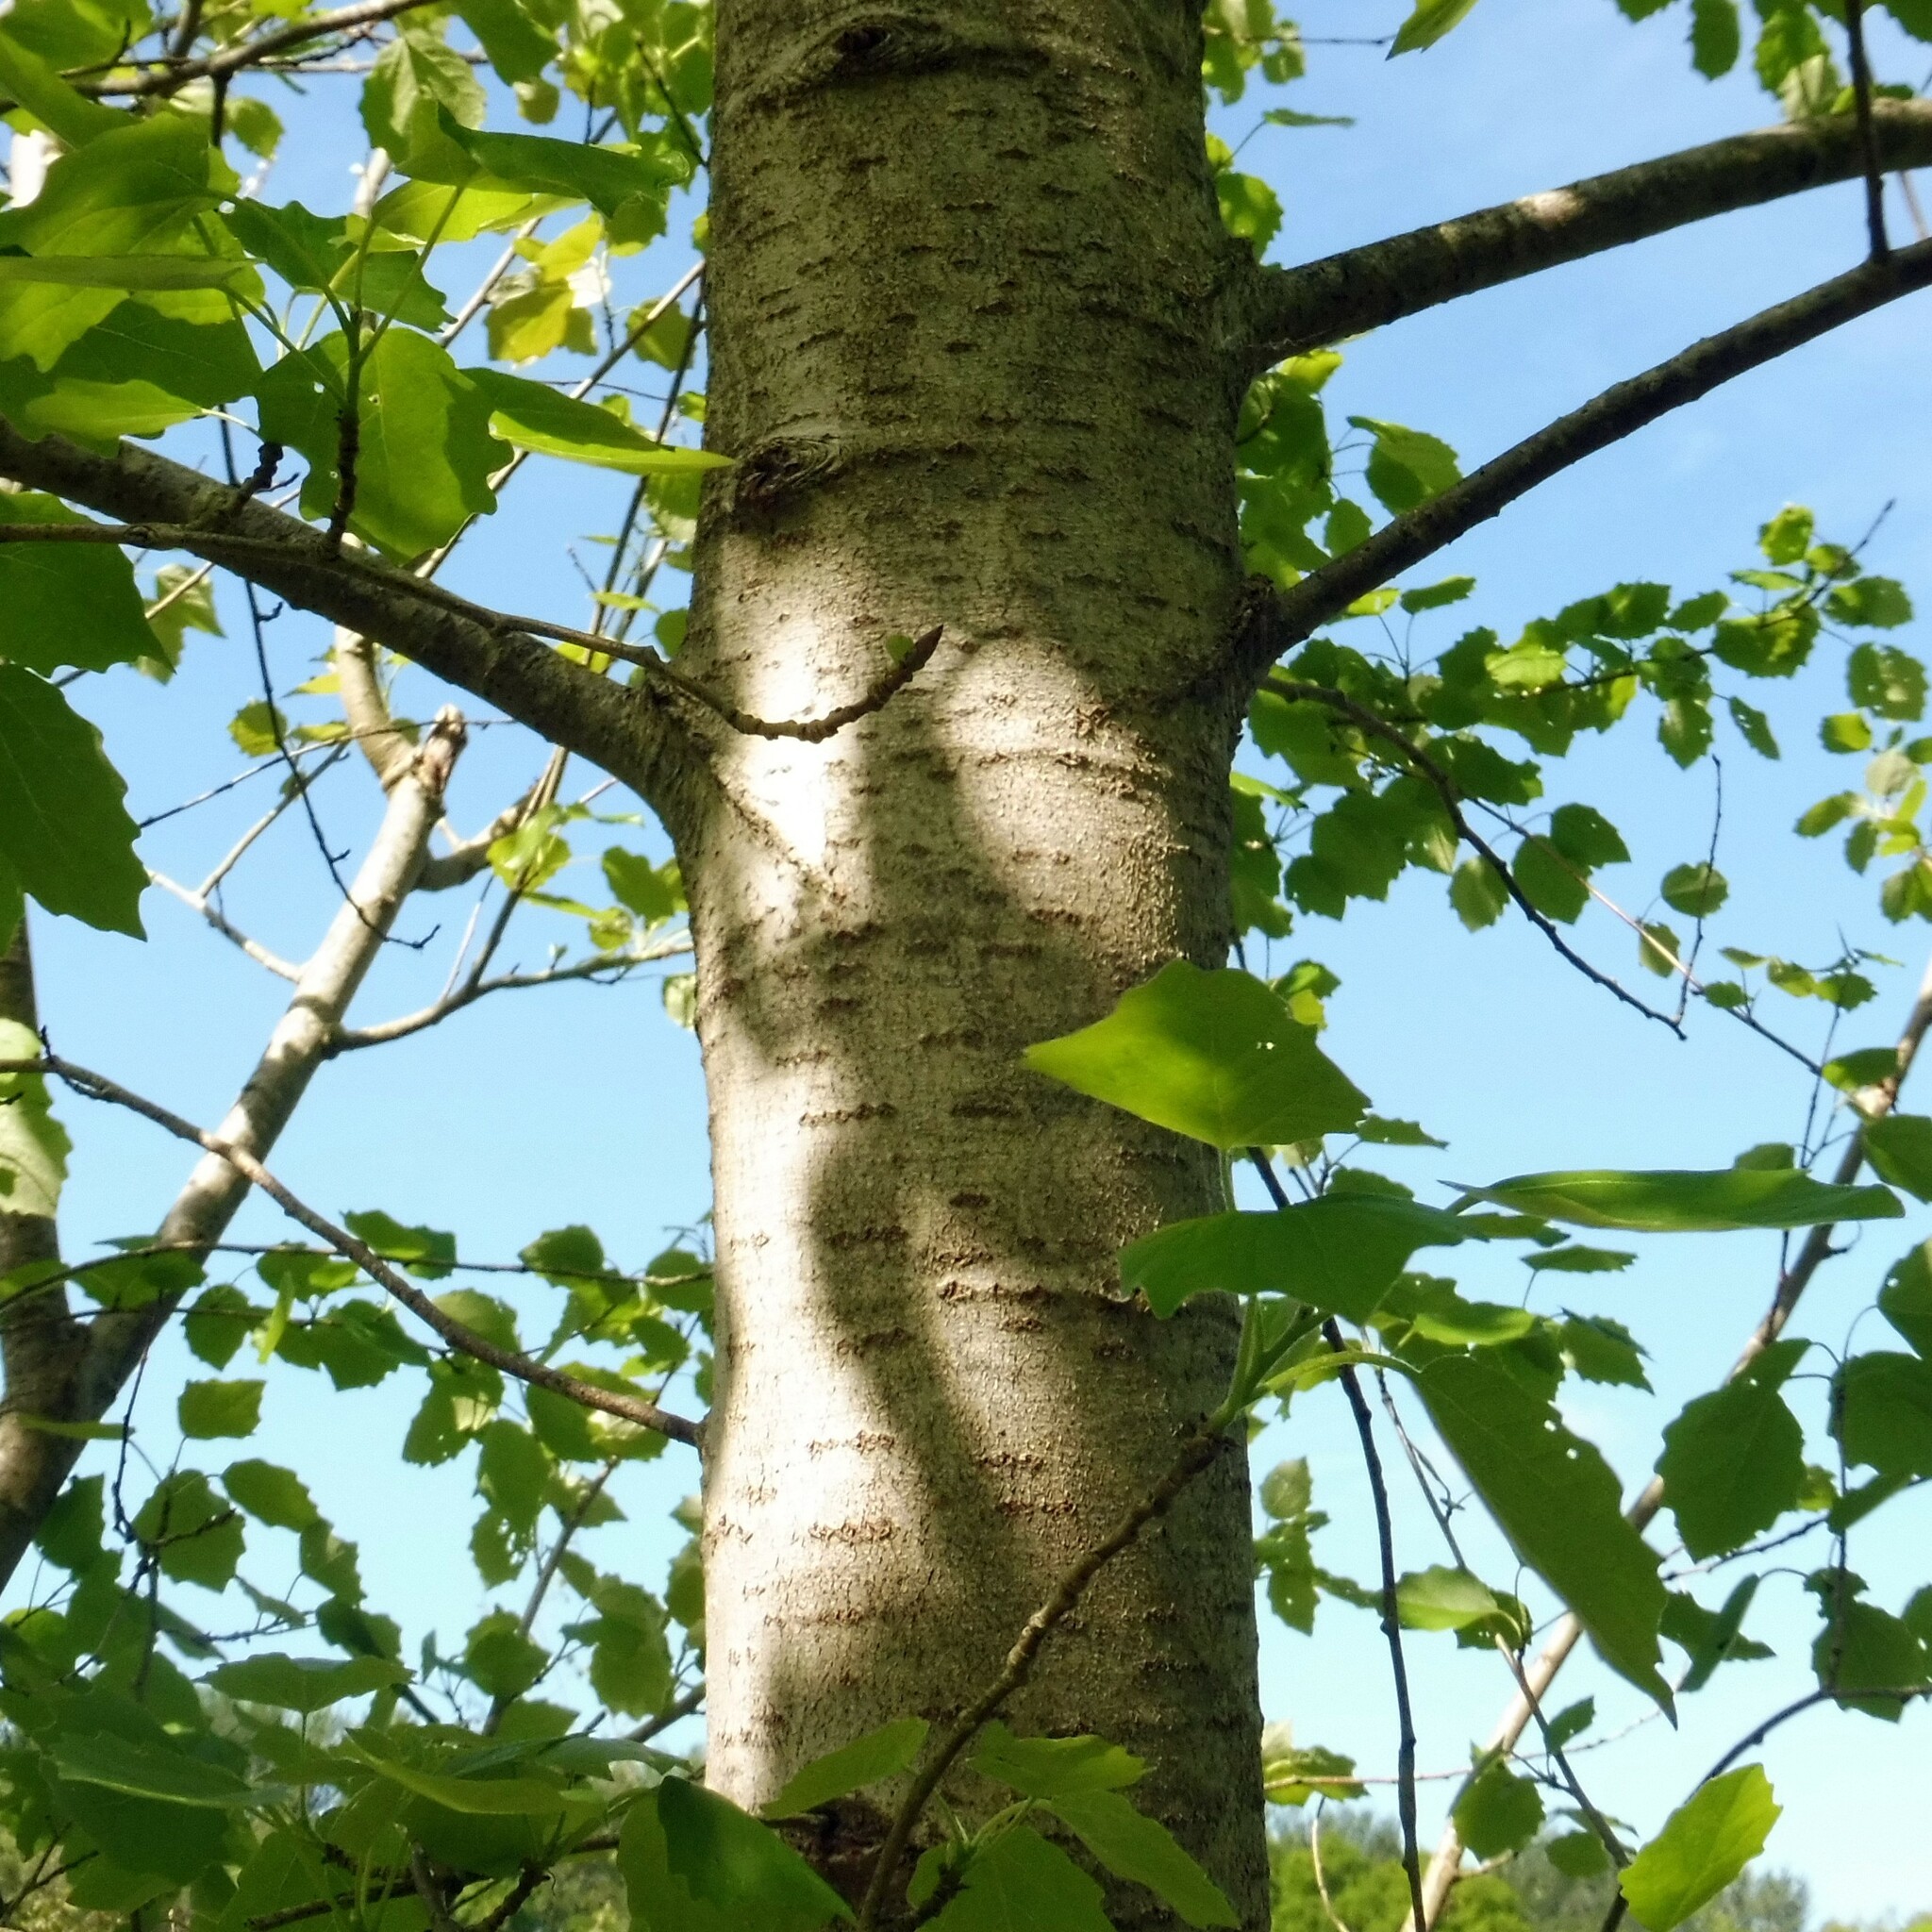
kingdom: Plantae
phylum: Tracheophyta
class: Magnoliopsida
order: Malpighiales
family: Salicaceae
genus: Populus
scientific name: Populus canescens
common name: Gray poplar
